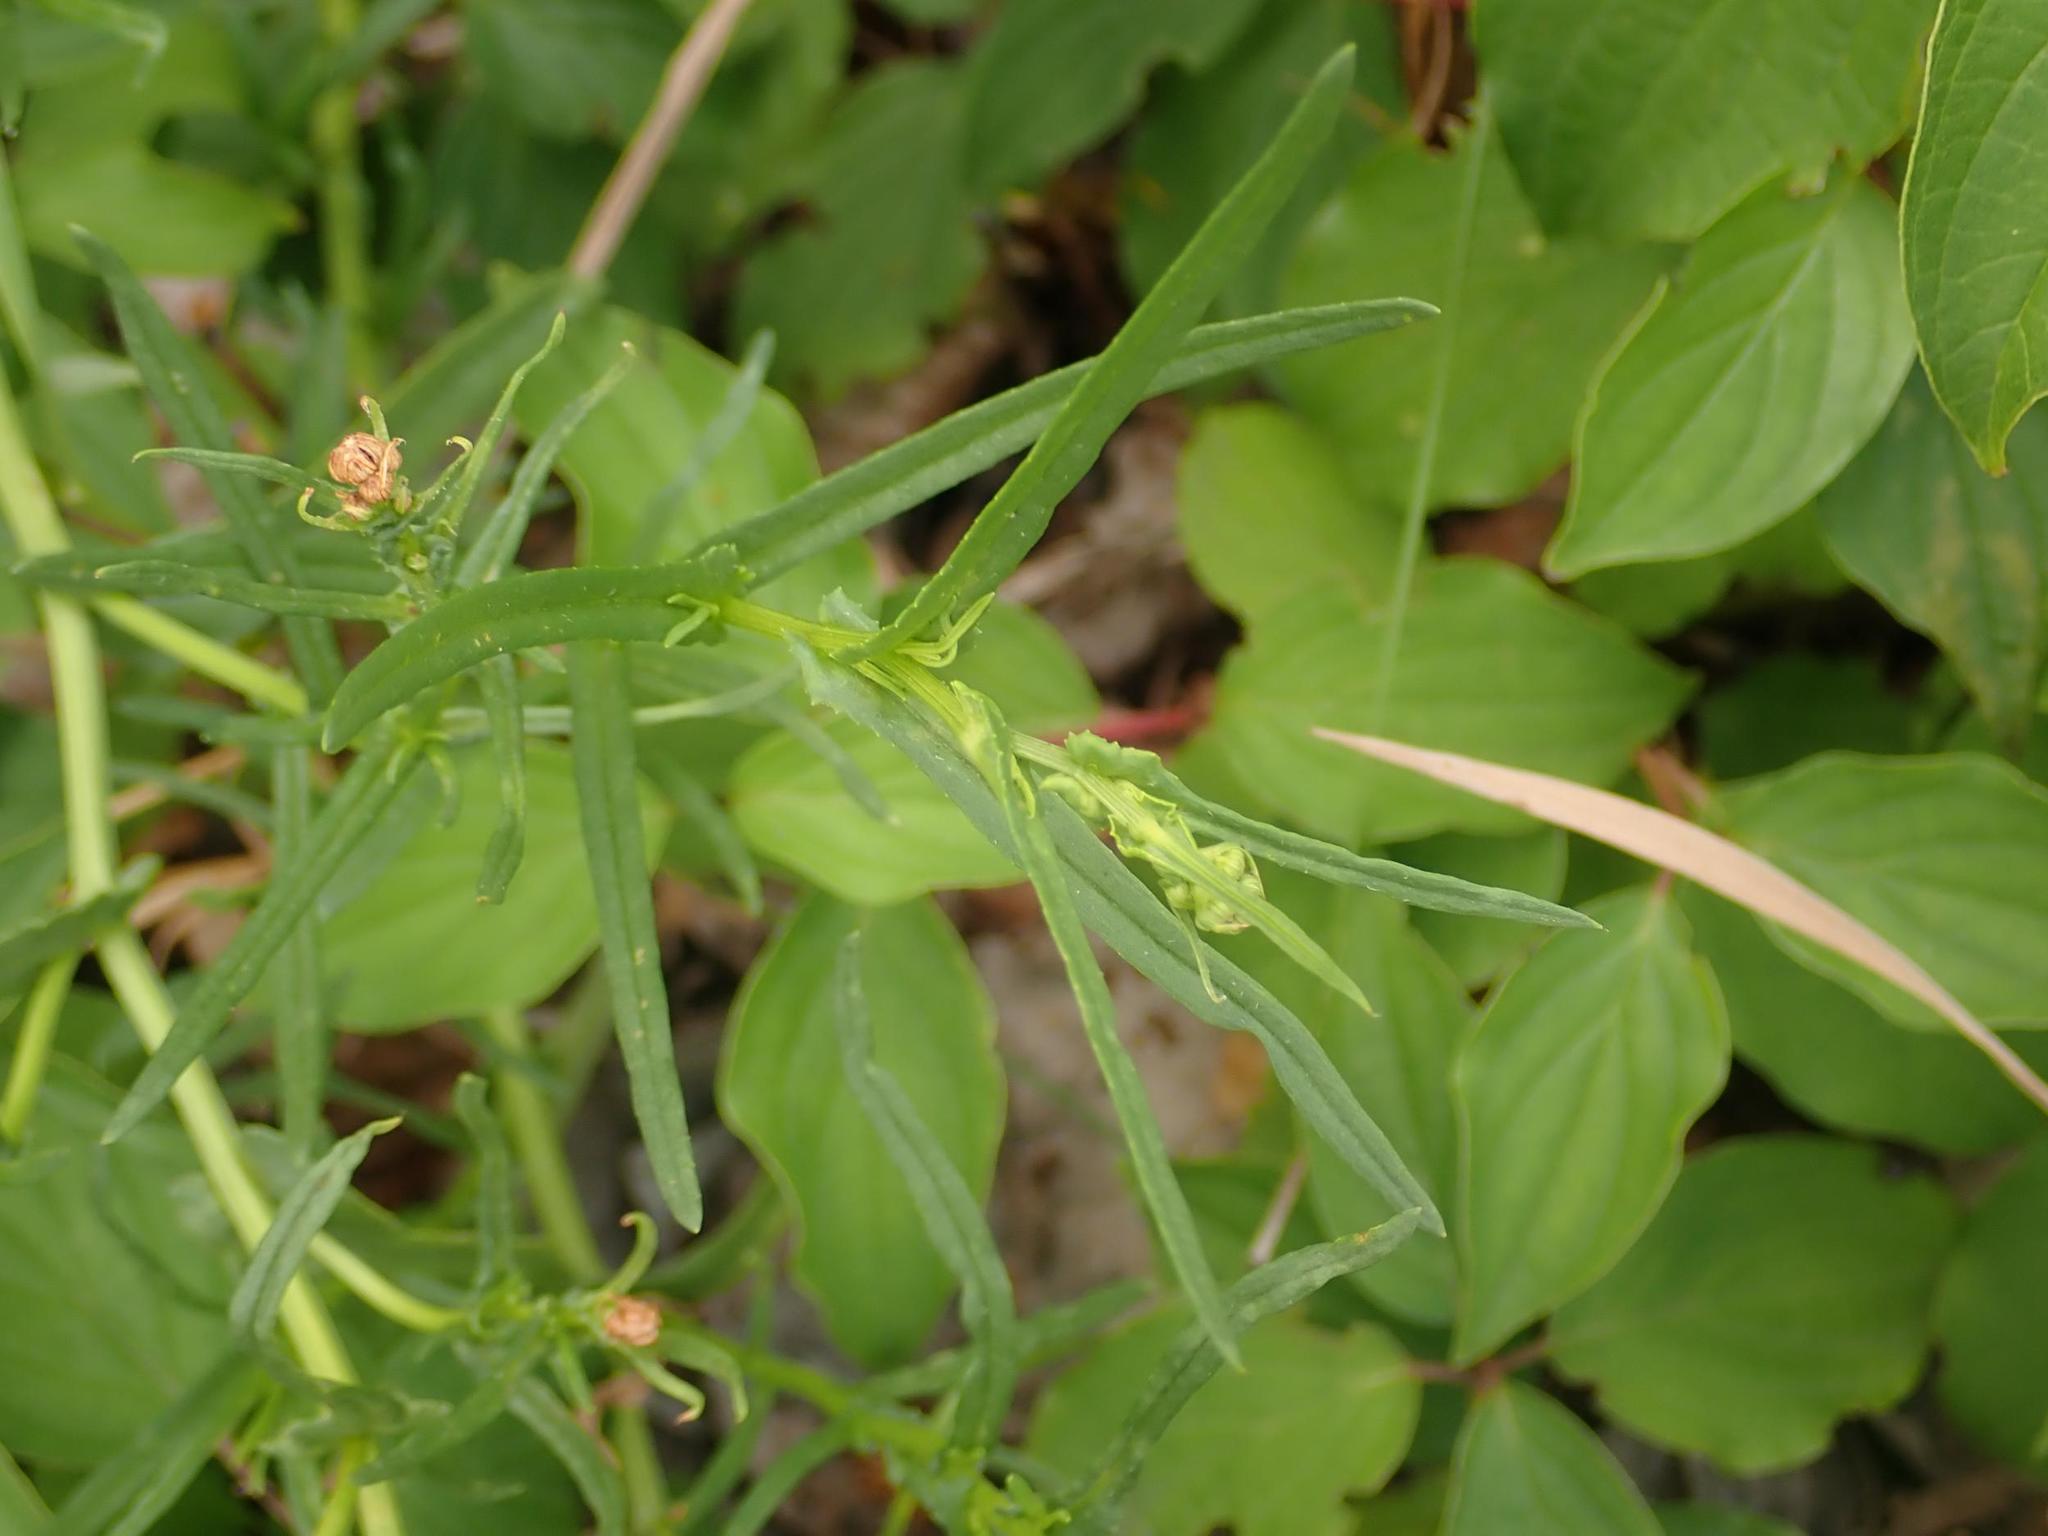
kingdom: Plantae
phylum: Tracheophyta
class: Magnoliopsida
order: Asterales
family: Asteraceae
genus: Senecio
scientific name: Senecio inaequidens
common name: Narrow-leaved ragwort
